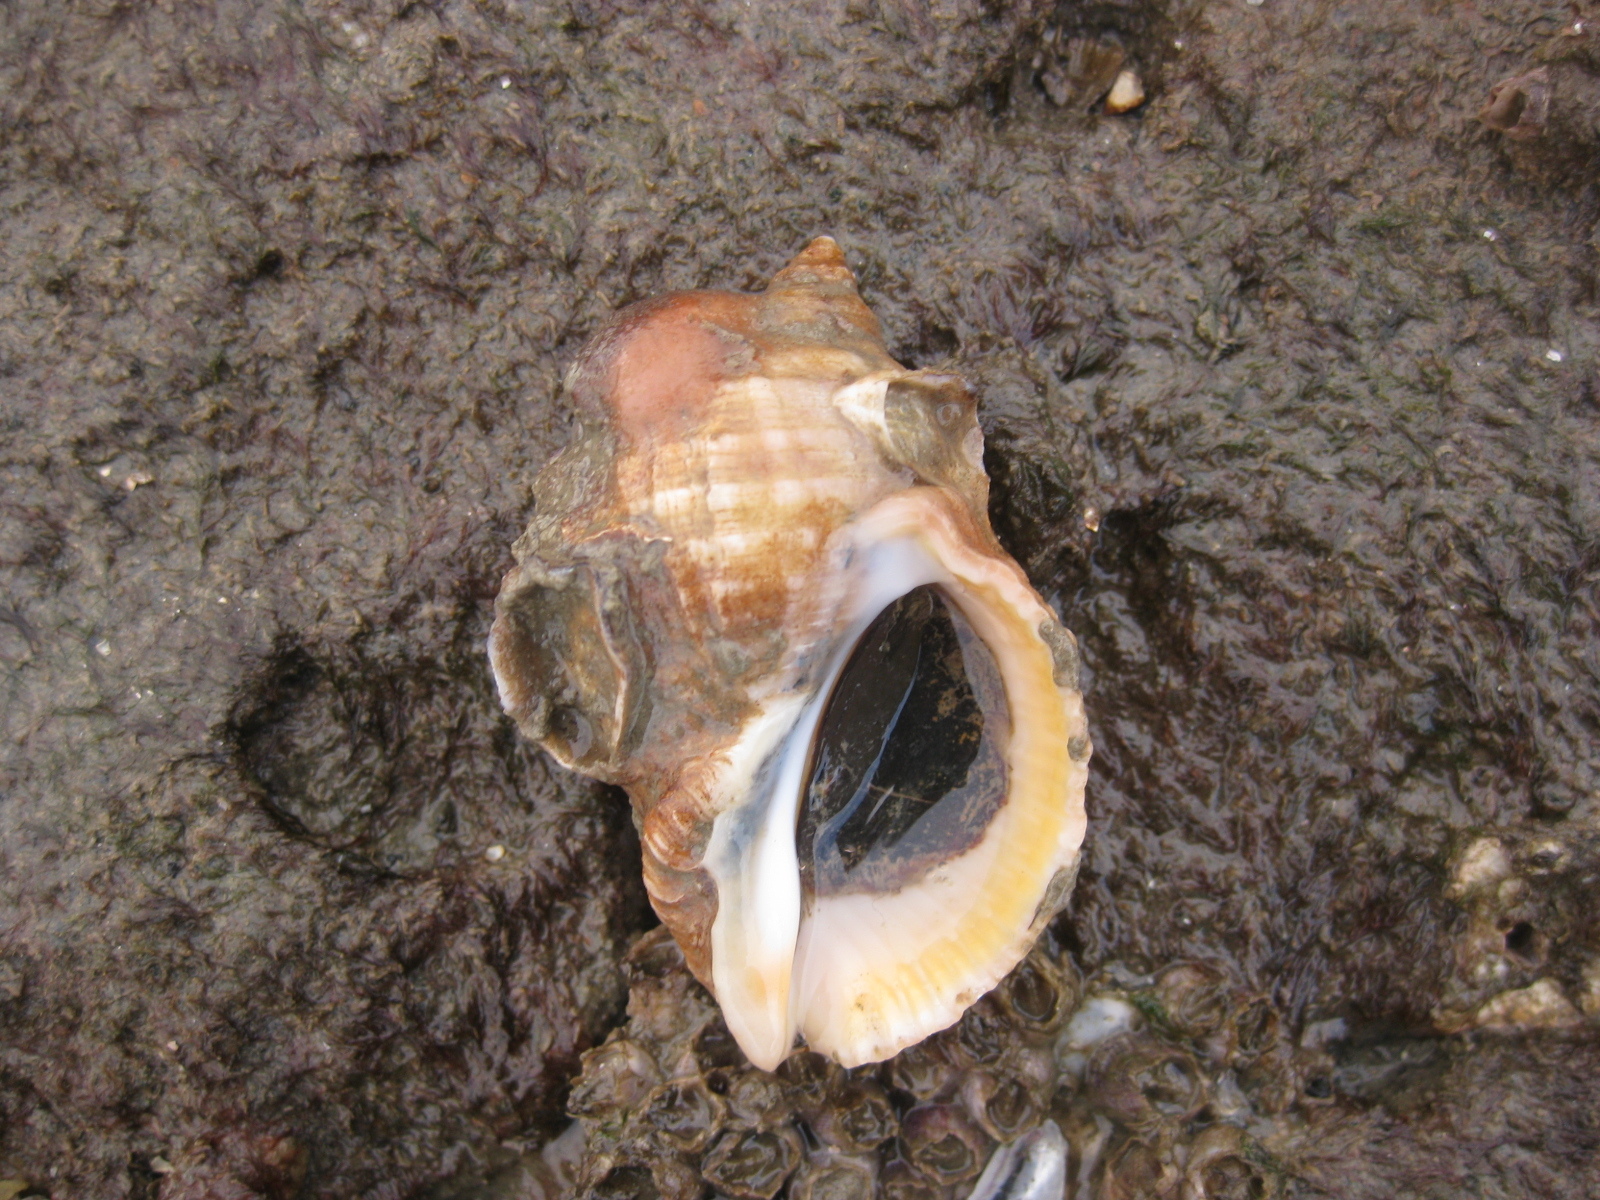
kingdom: Animalia
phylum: Mollusca
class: Gastropoda
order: Neogastropoda
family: Muricidae
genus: Dicathais
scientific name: Dicathais orbita
